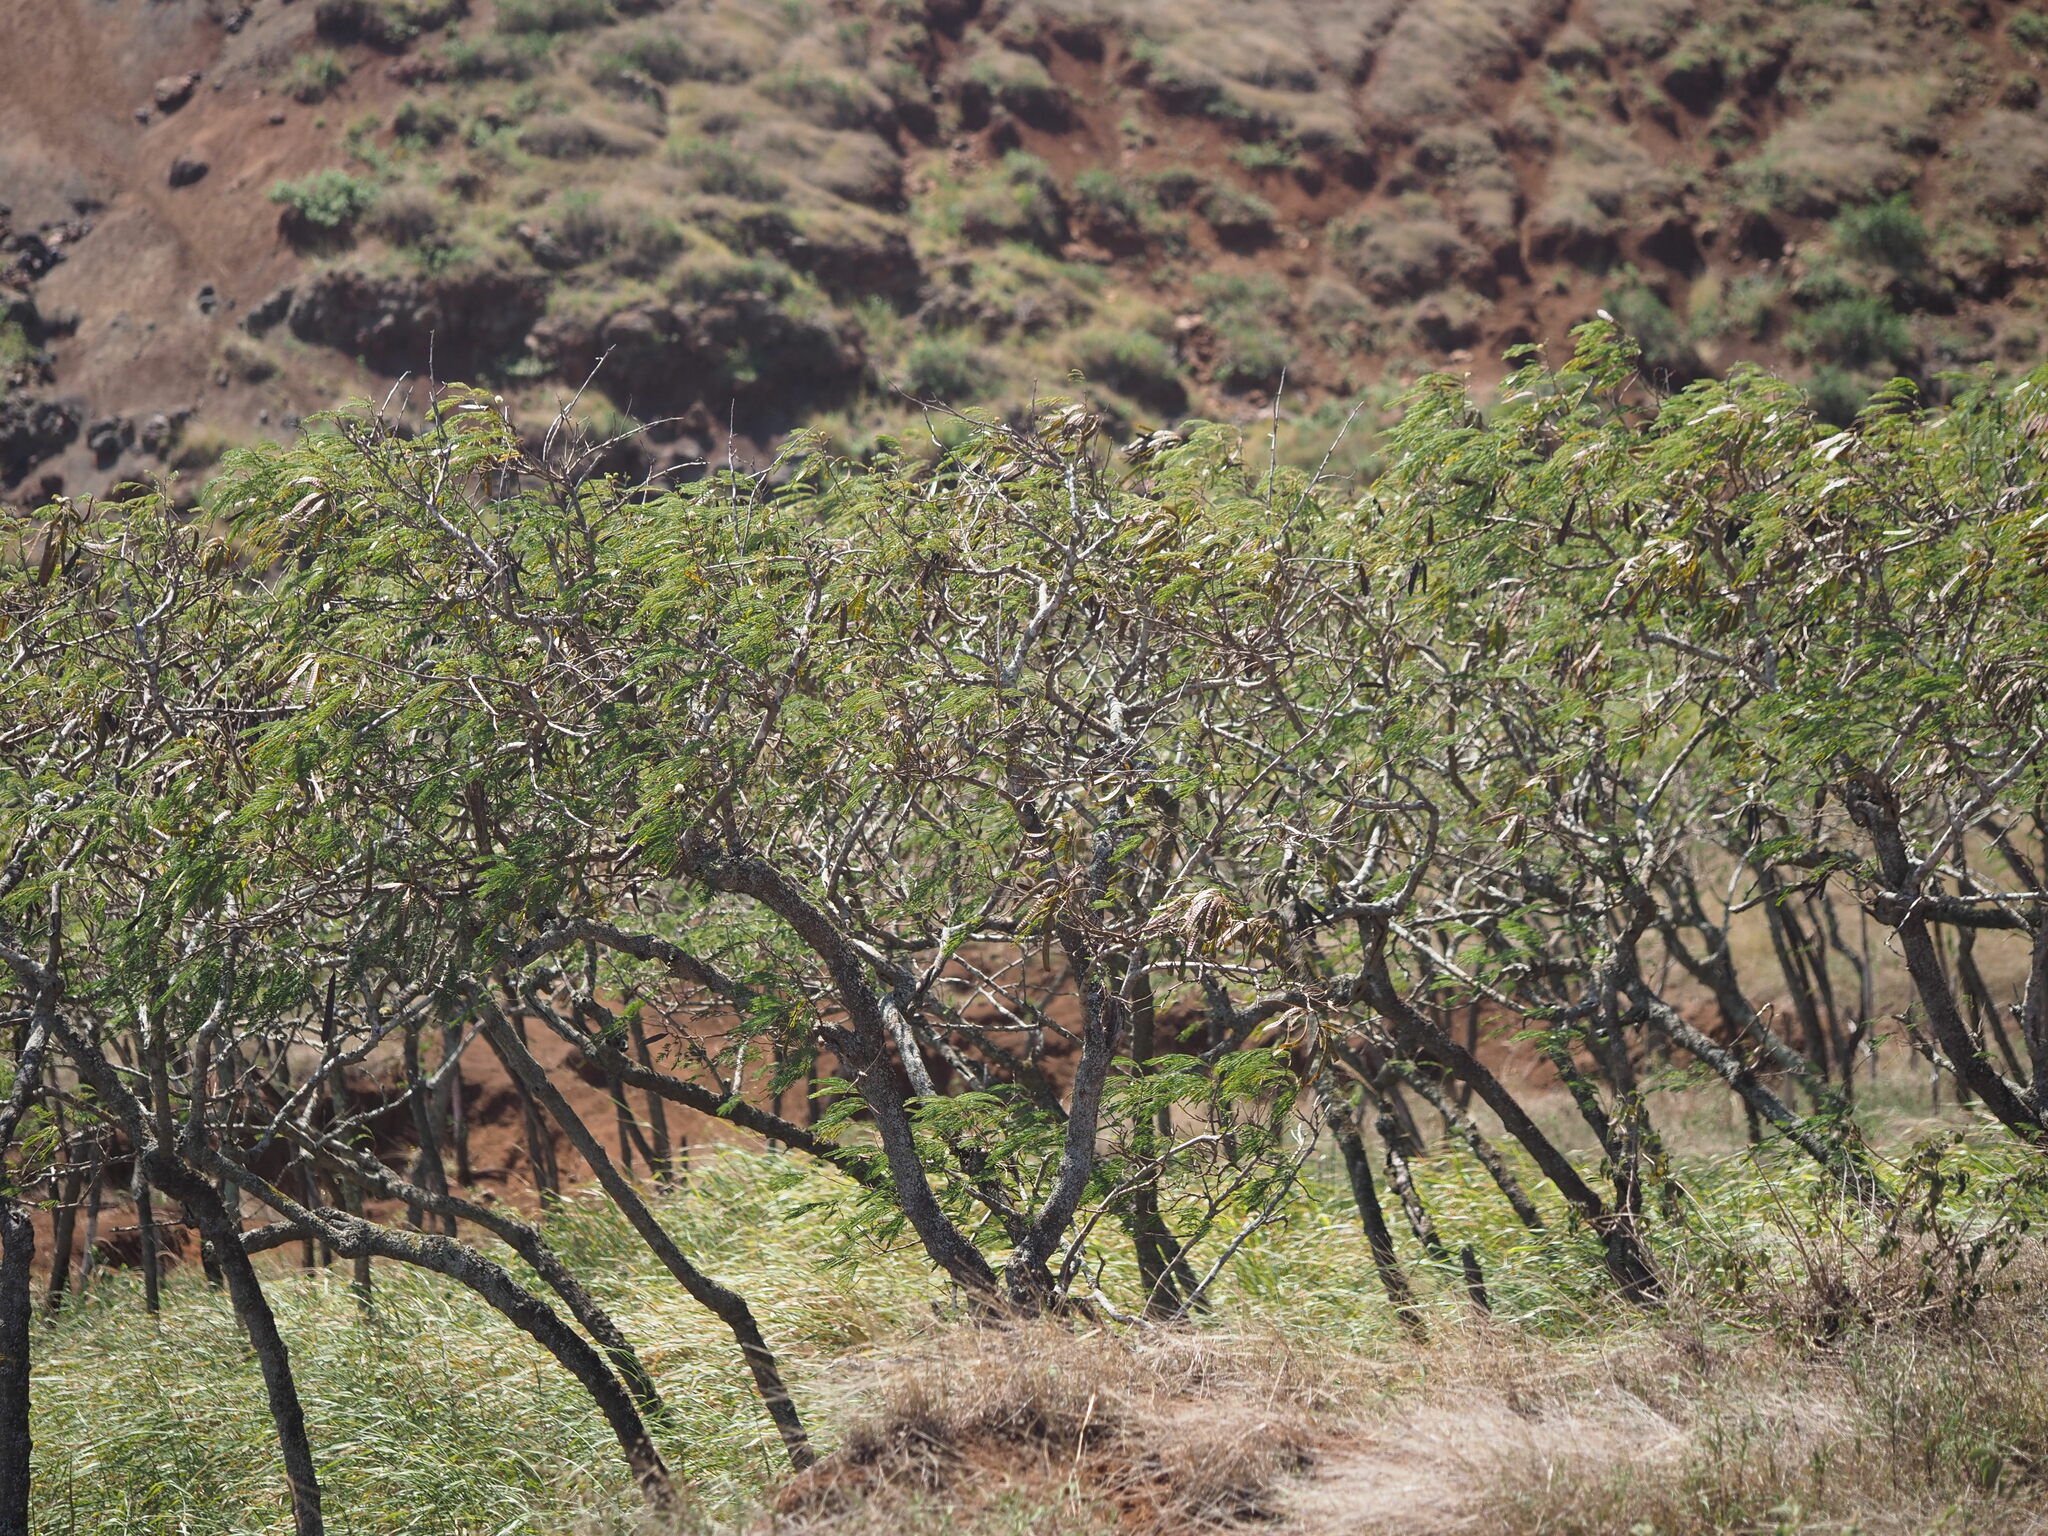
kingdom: Plantae
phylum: Tracheophyta
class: Magnoliopsida
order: Fabales
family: Fabaceae
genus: Leucaena
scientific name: Leucaena leucocephala
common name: White leadtree
